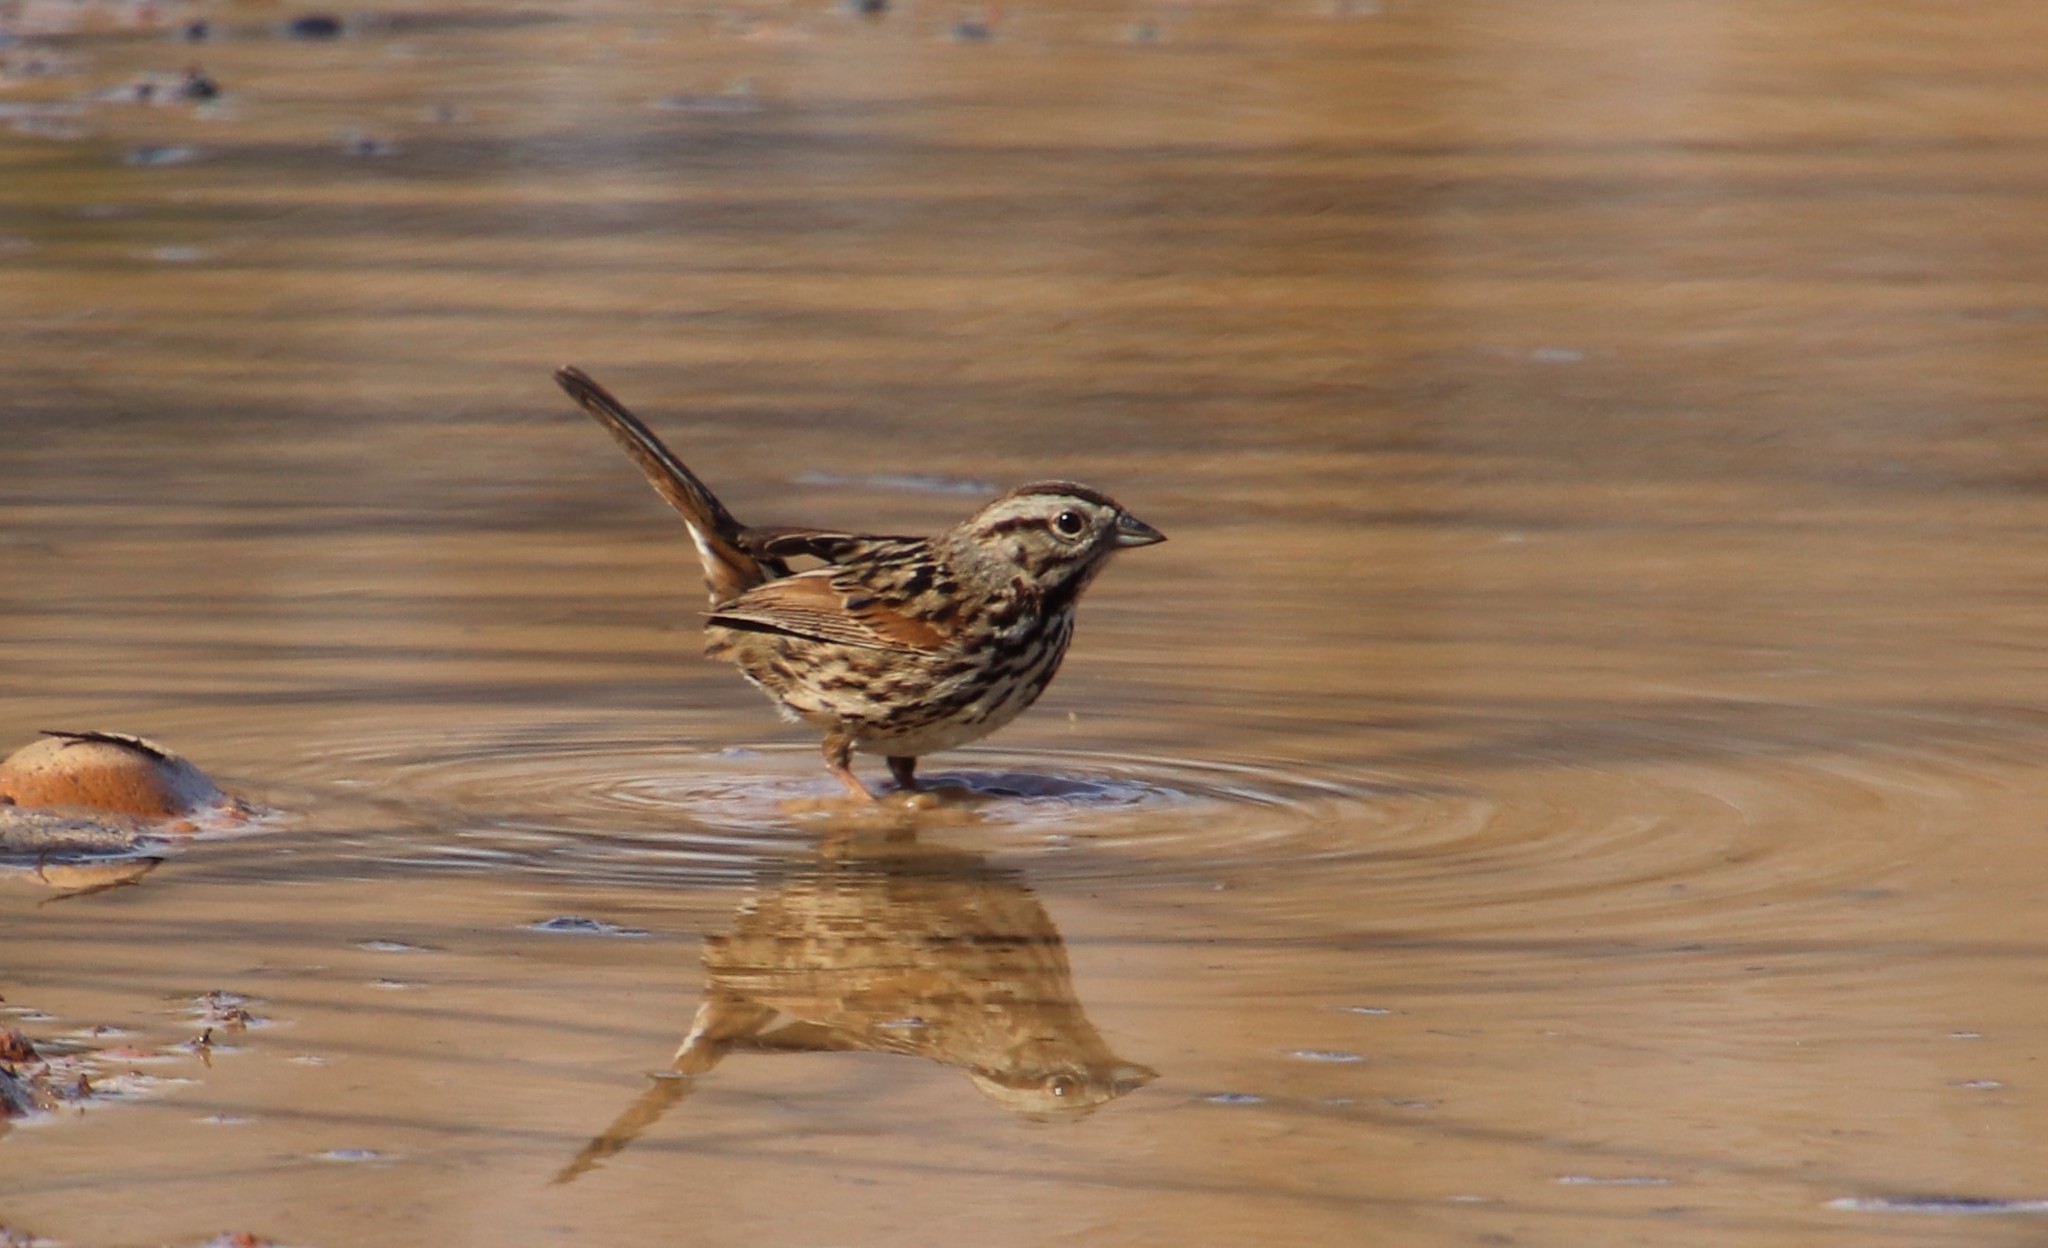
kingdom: Animalia
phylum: Chordata
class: Aves
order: Passeriformes
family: Passerellidae
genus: Melospiza
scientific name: Melospiza melodia
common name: Song sparrow
